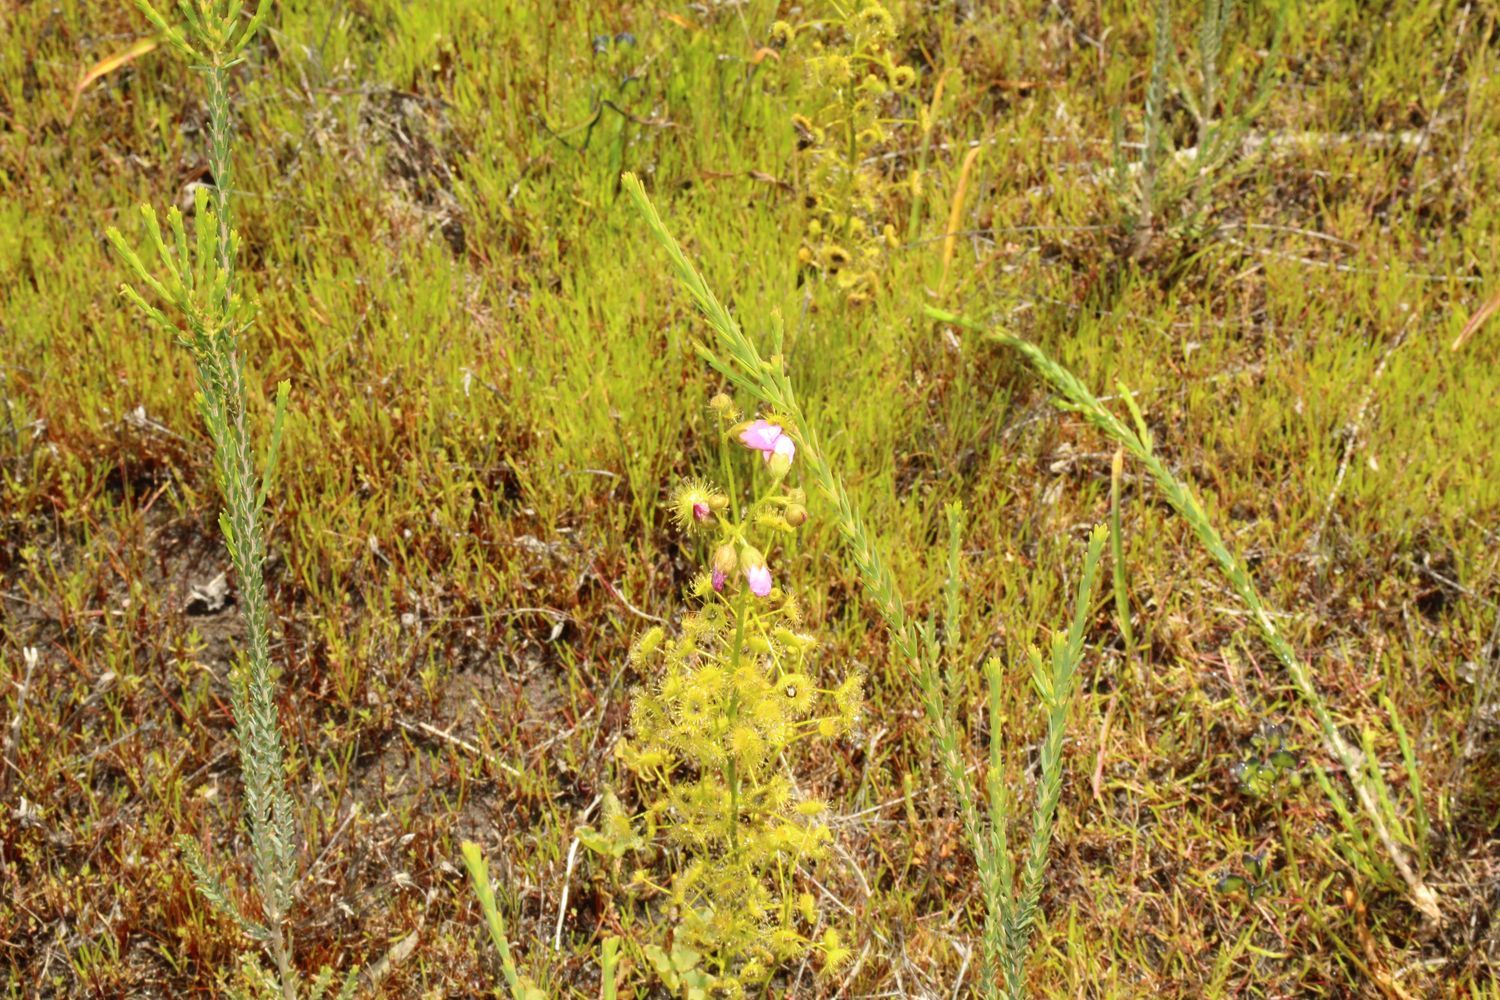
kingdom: Plantae
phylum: Tracheophyta
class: Magnoliopsida
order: Caryophyllales
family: Droseraceae
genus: Drosera
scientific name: Drosera stricticaulis
